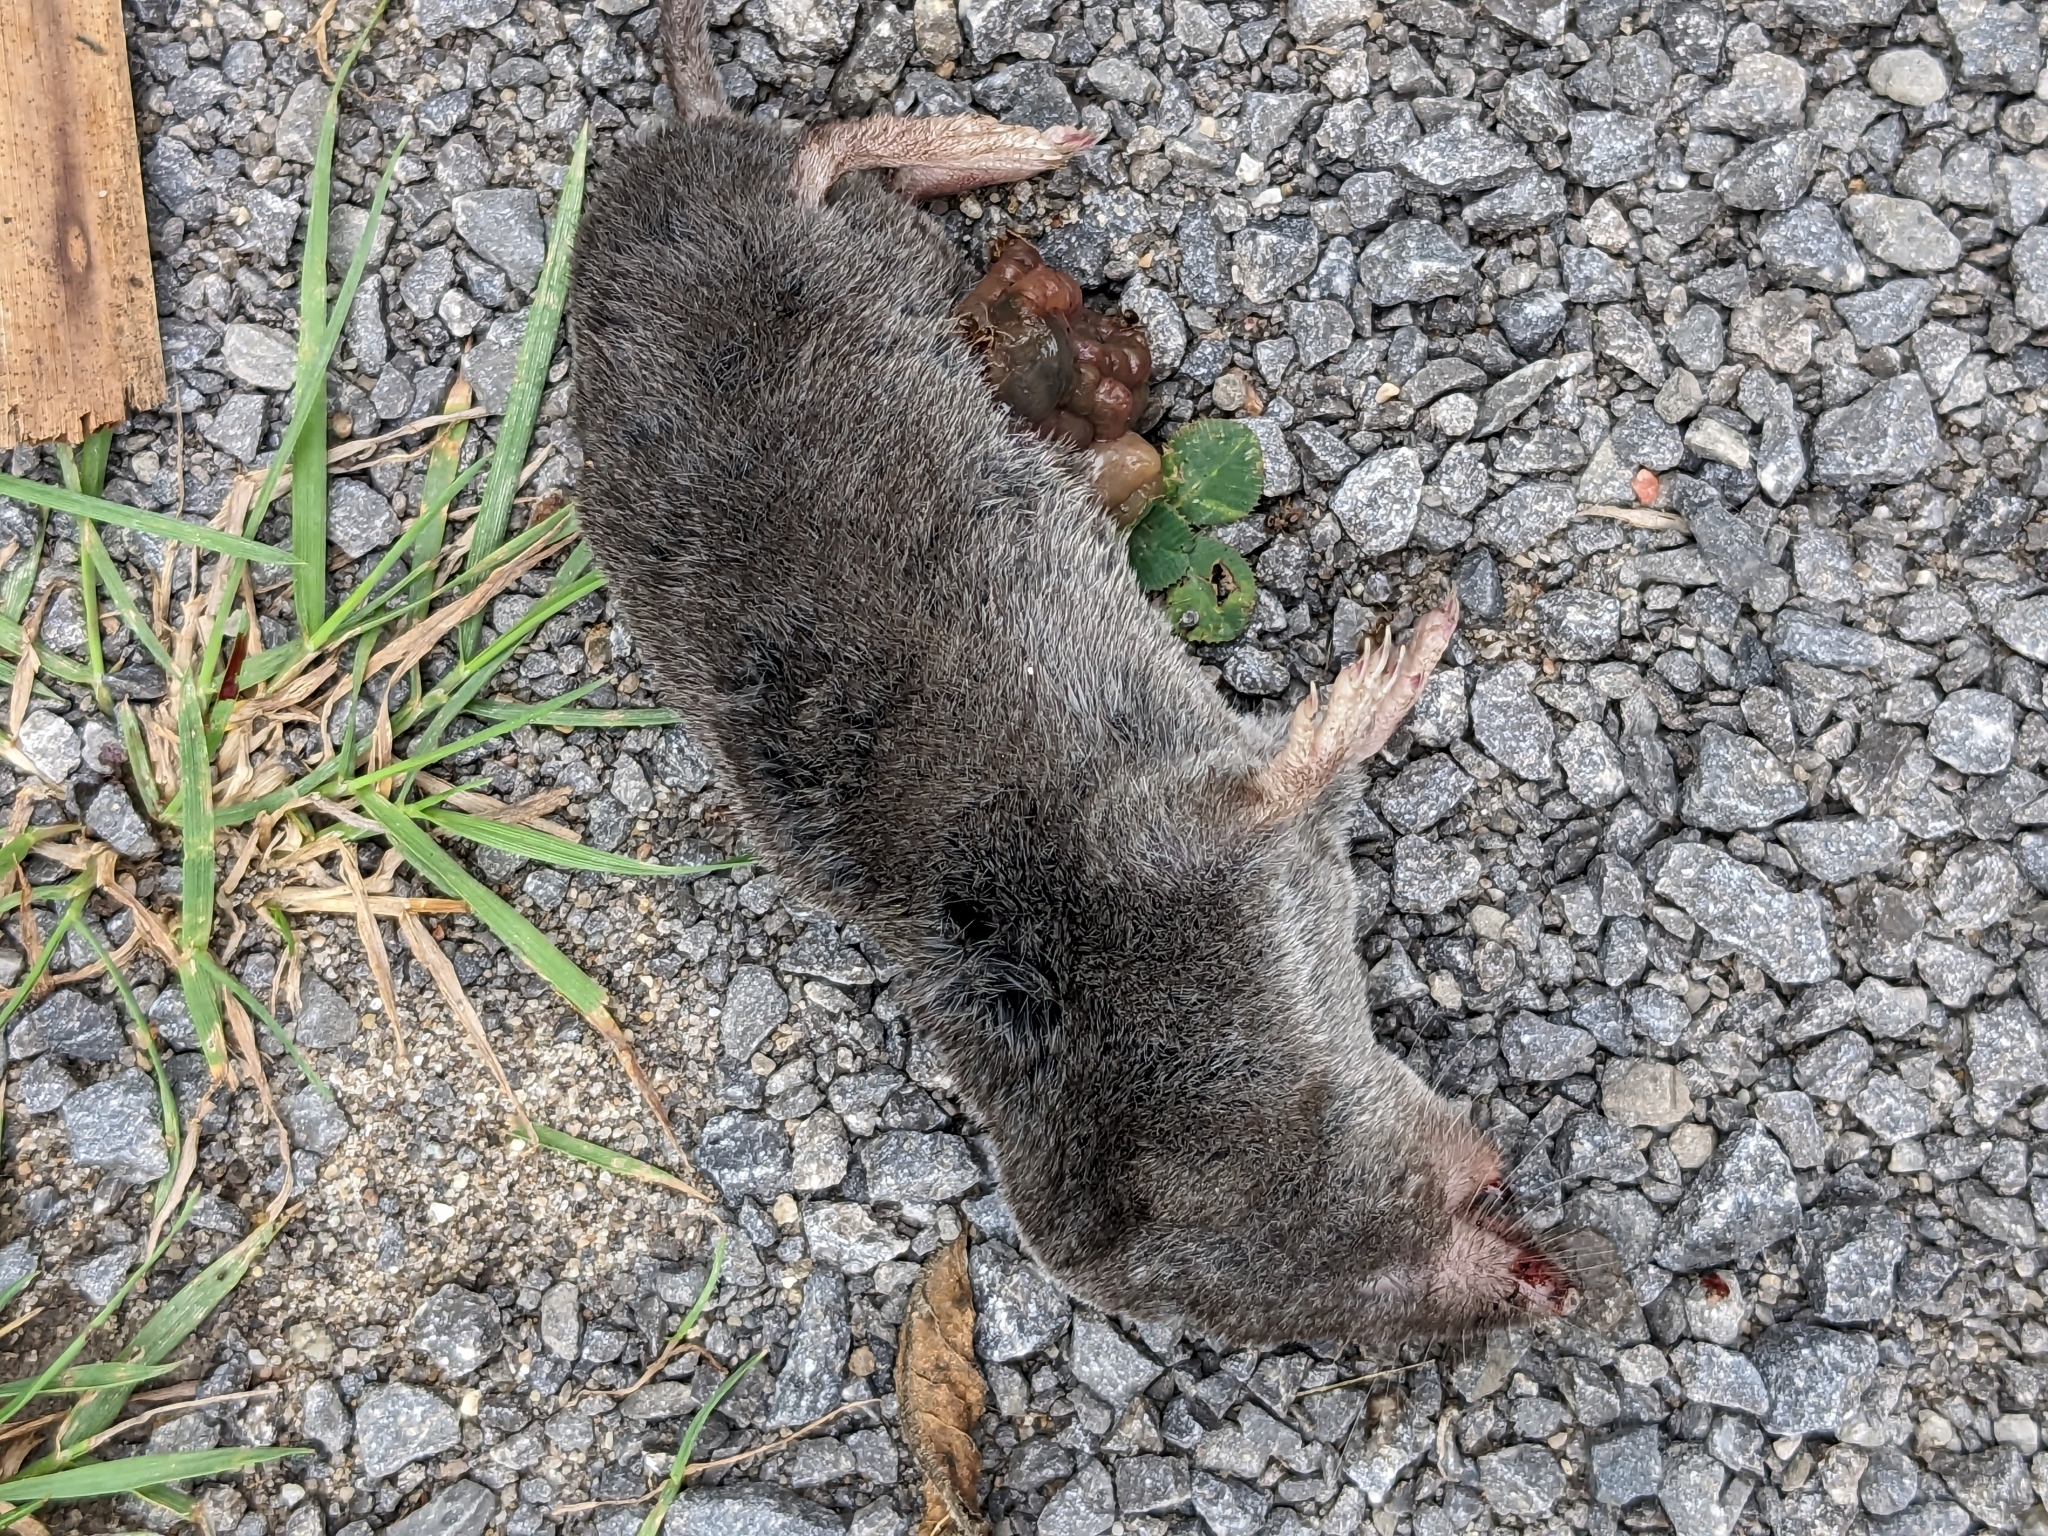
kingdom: Animalia
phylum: Chordata
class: Mammalia
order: Soricomorpha
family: Soricidae
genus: Blarina
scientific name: Blarina brevicauda
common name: Northern short-tailed shrew
